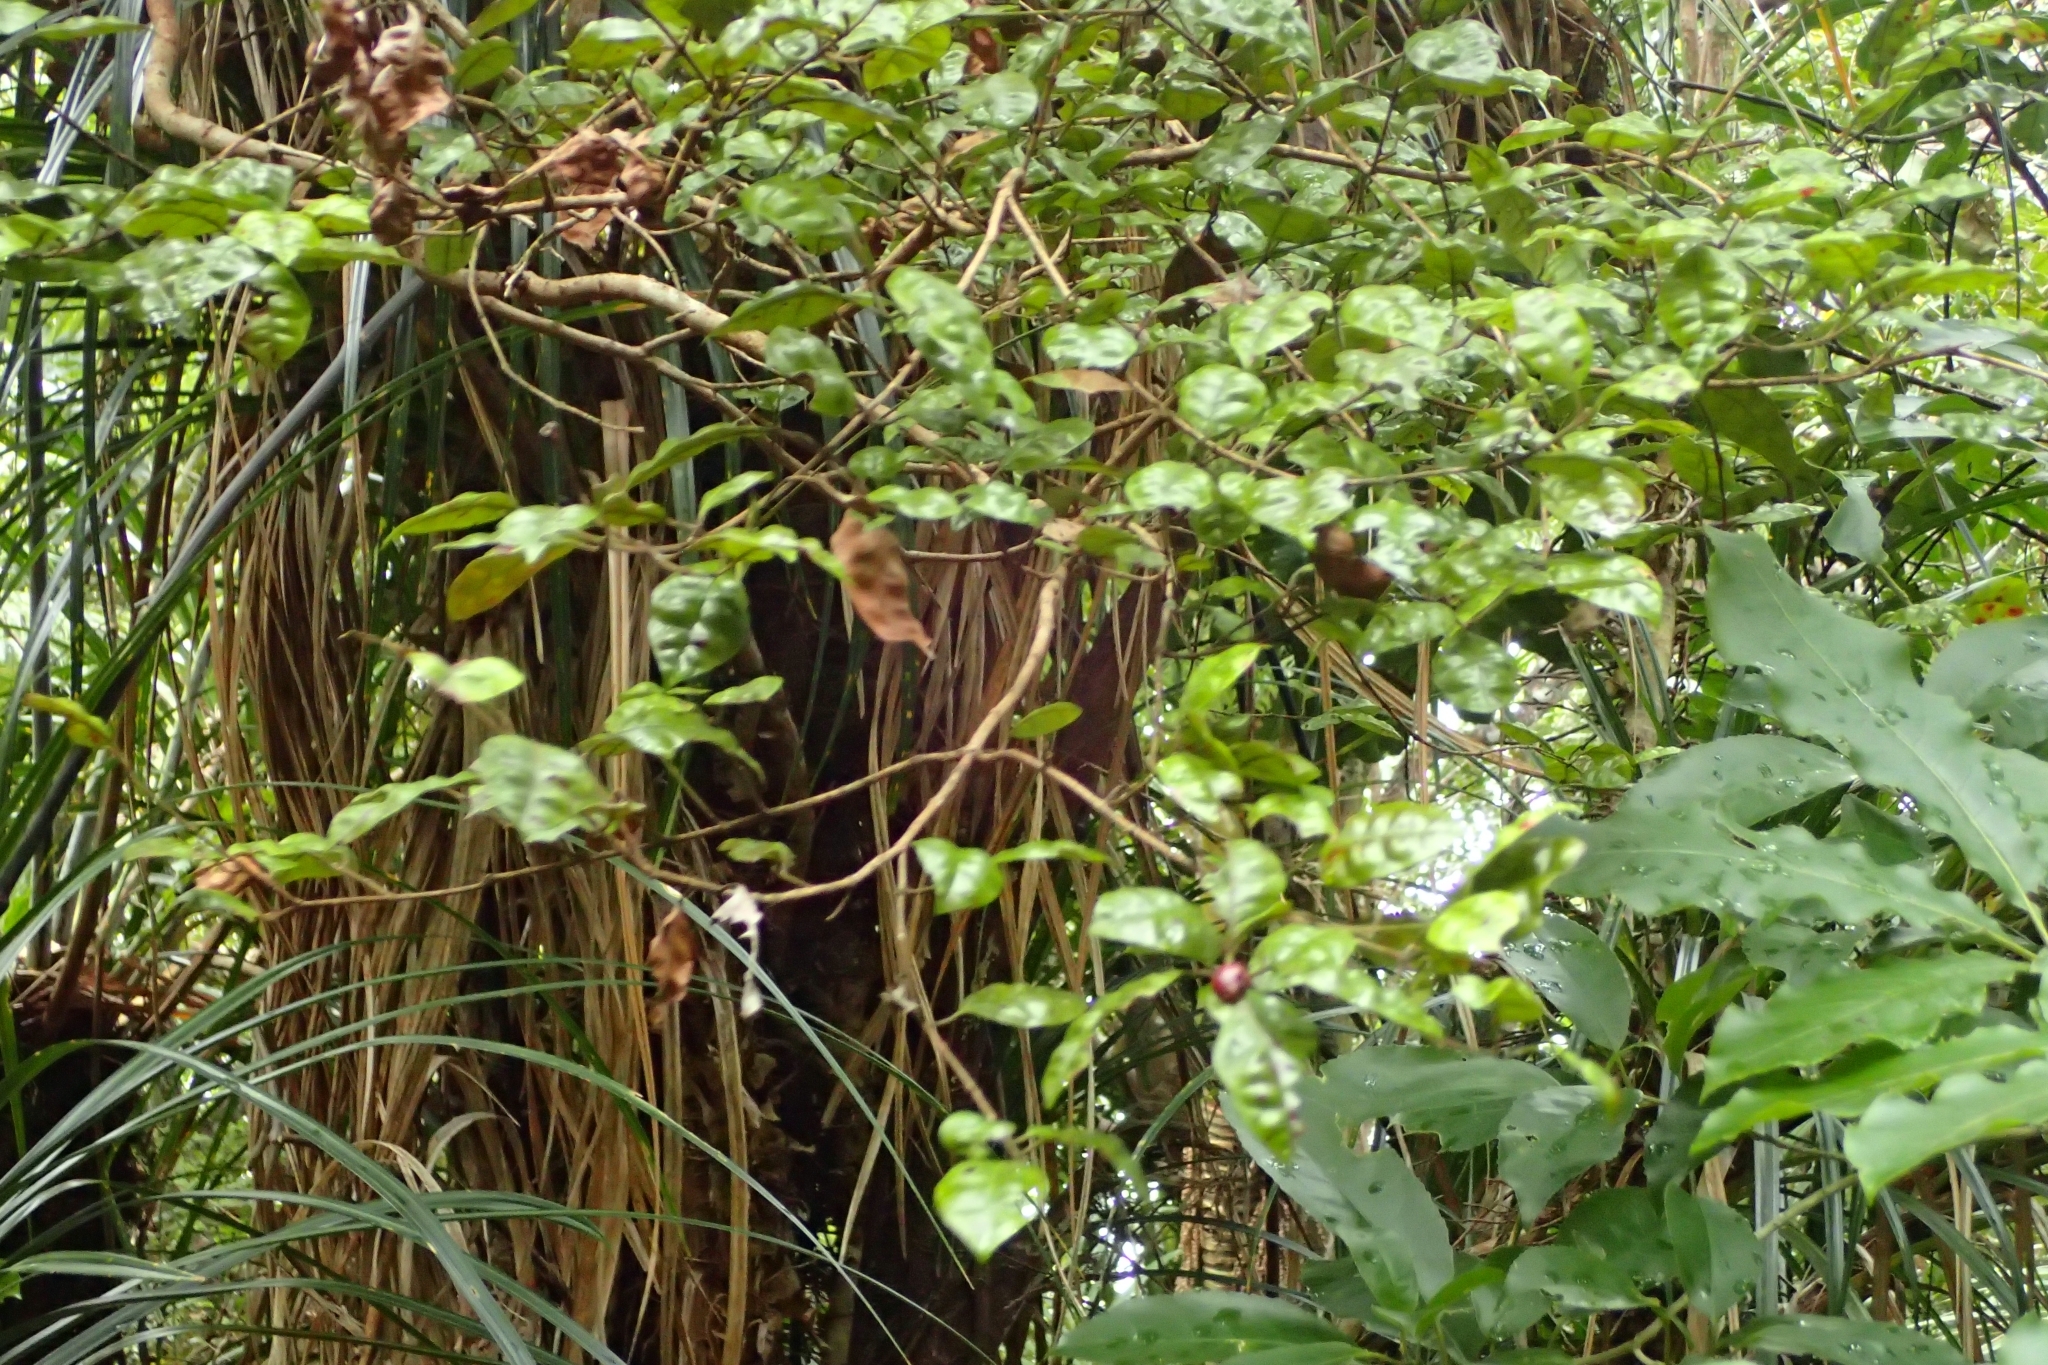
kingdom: Plantae
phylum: Tracheophyta
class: Magnoliopsida
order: Myrtales
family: Myrtaceae
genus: Lophomyrtus
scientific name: Lophomyrtus bullata
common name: Rama rama
